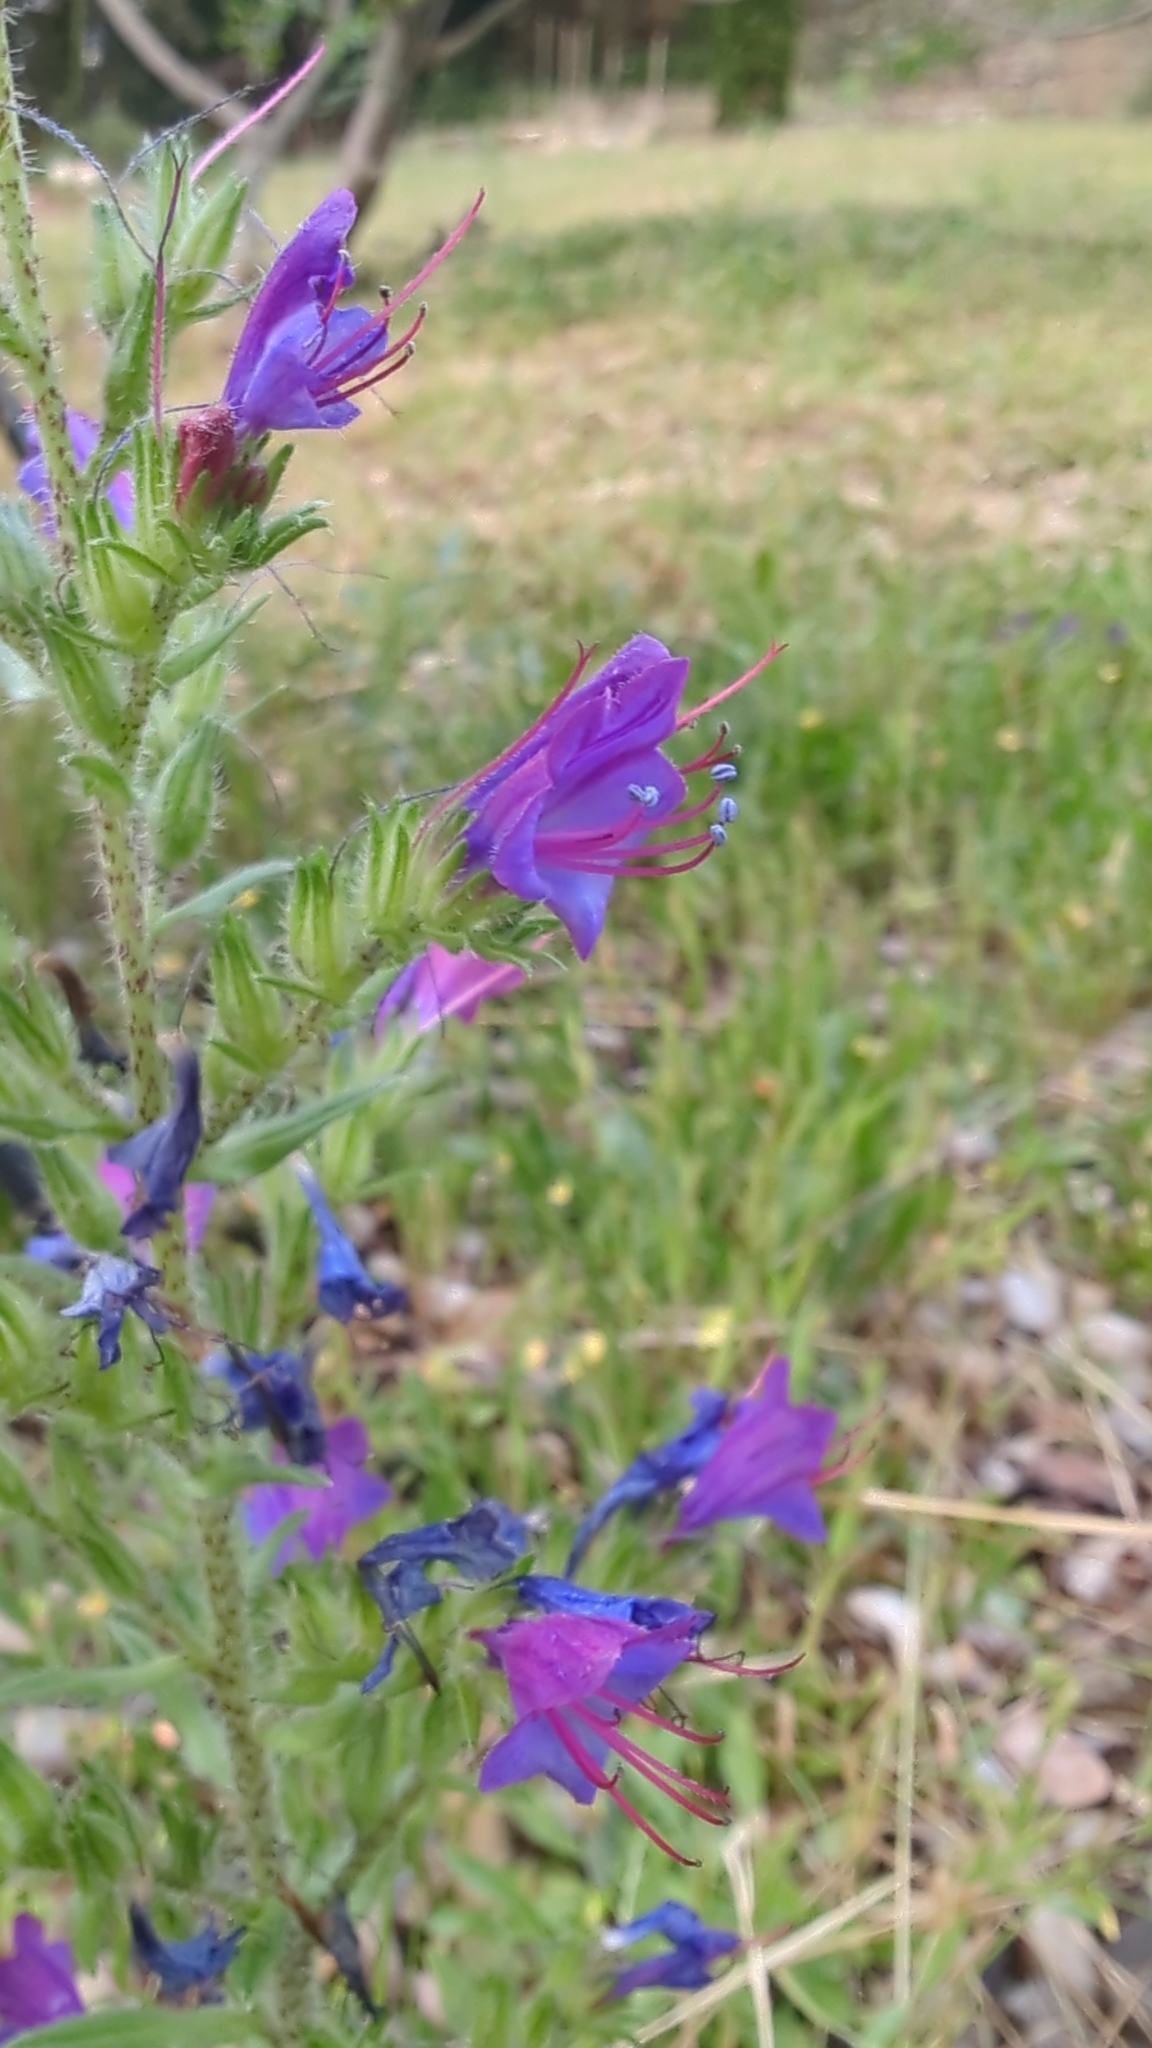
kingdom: Plantae
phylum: Tracheophyta
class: Magnoliopsida
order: Boraginales
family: Boraginaceae
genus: Echium
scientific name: Echium vulgare
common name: Common viper's bugloss
